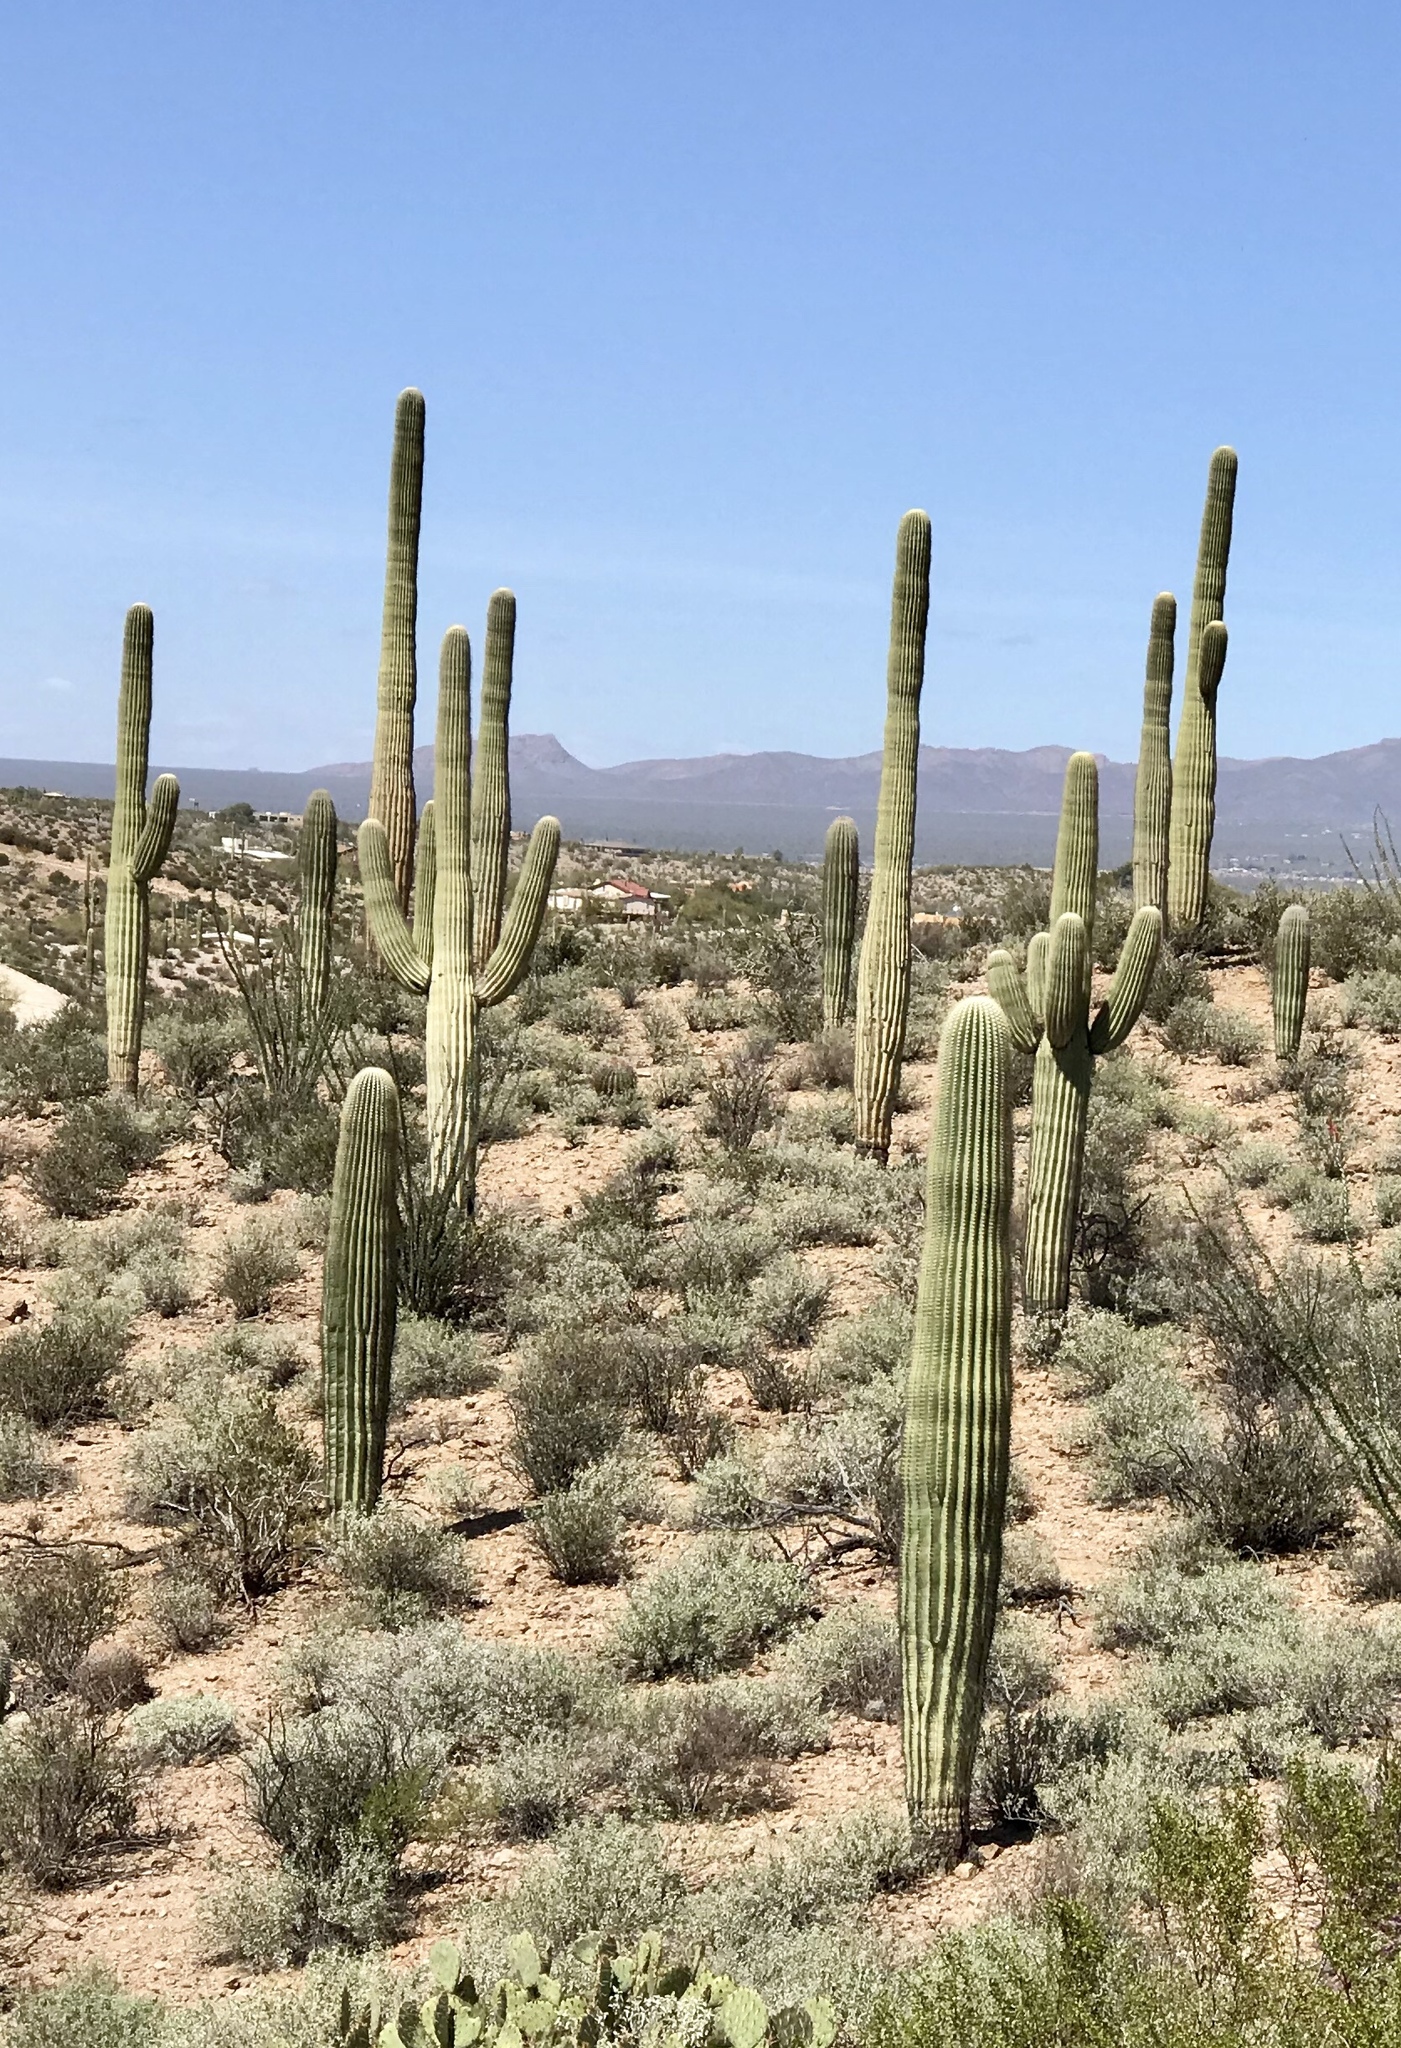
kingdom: Plantae
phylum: Tracheophyta
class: Magnoliopsida
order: Caryophyllales
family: Cactaceae
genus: Carnegiea
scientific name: Carnegiea gigantea
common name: Saguaro
